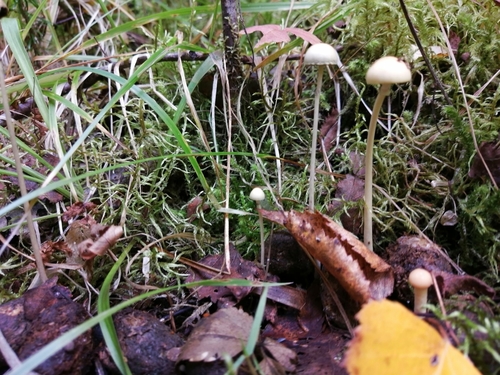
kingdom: Fungi
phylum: Basidiomycota
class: Agaricomycetes
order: Agaricales
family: Bolbitiaceae
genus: Panaeolus
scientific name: Panaeolus
